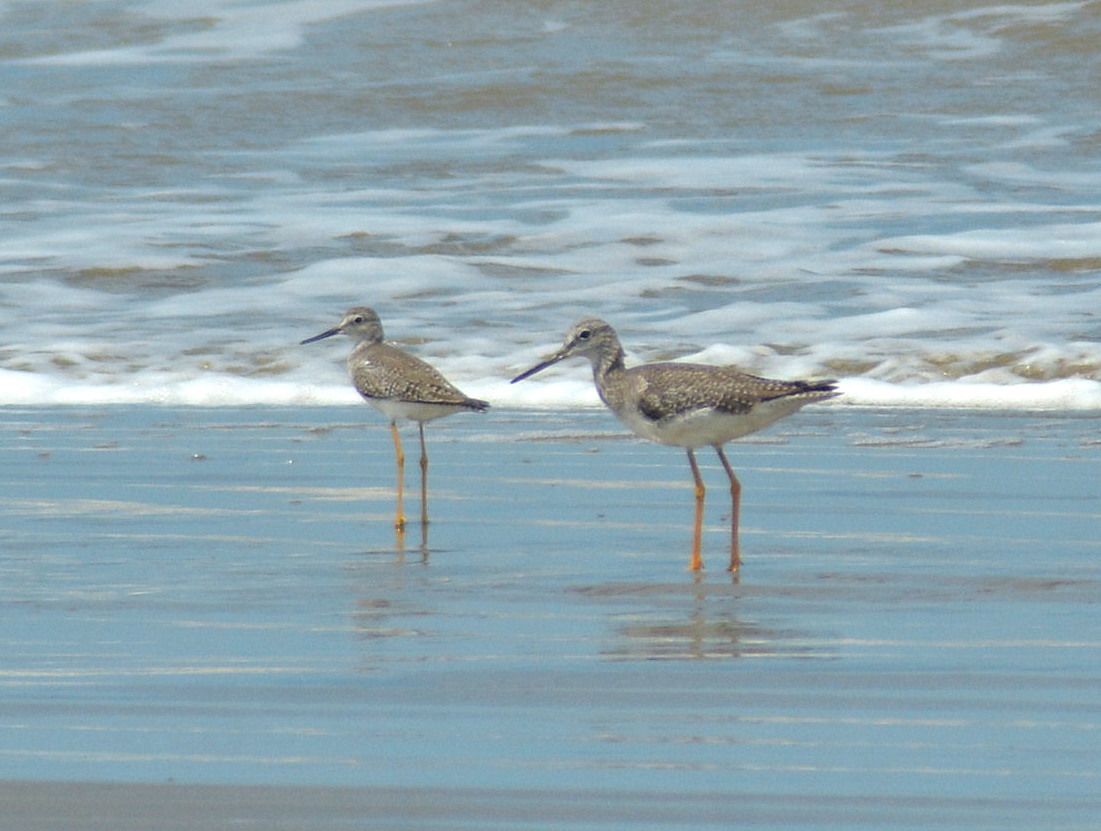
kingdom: Animalia
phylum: Chordata
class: Aves
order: Charadriiformes
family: Scolopacidae
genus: Tringa
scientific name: Tringa melanoleuca
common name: Greater yellowlegs
